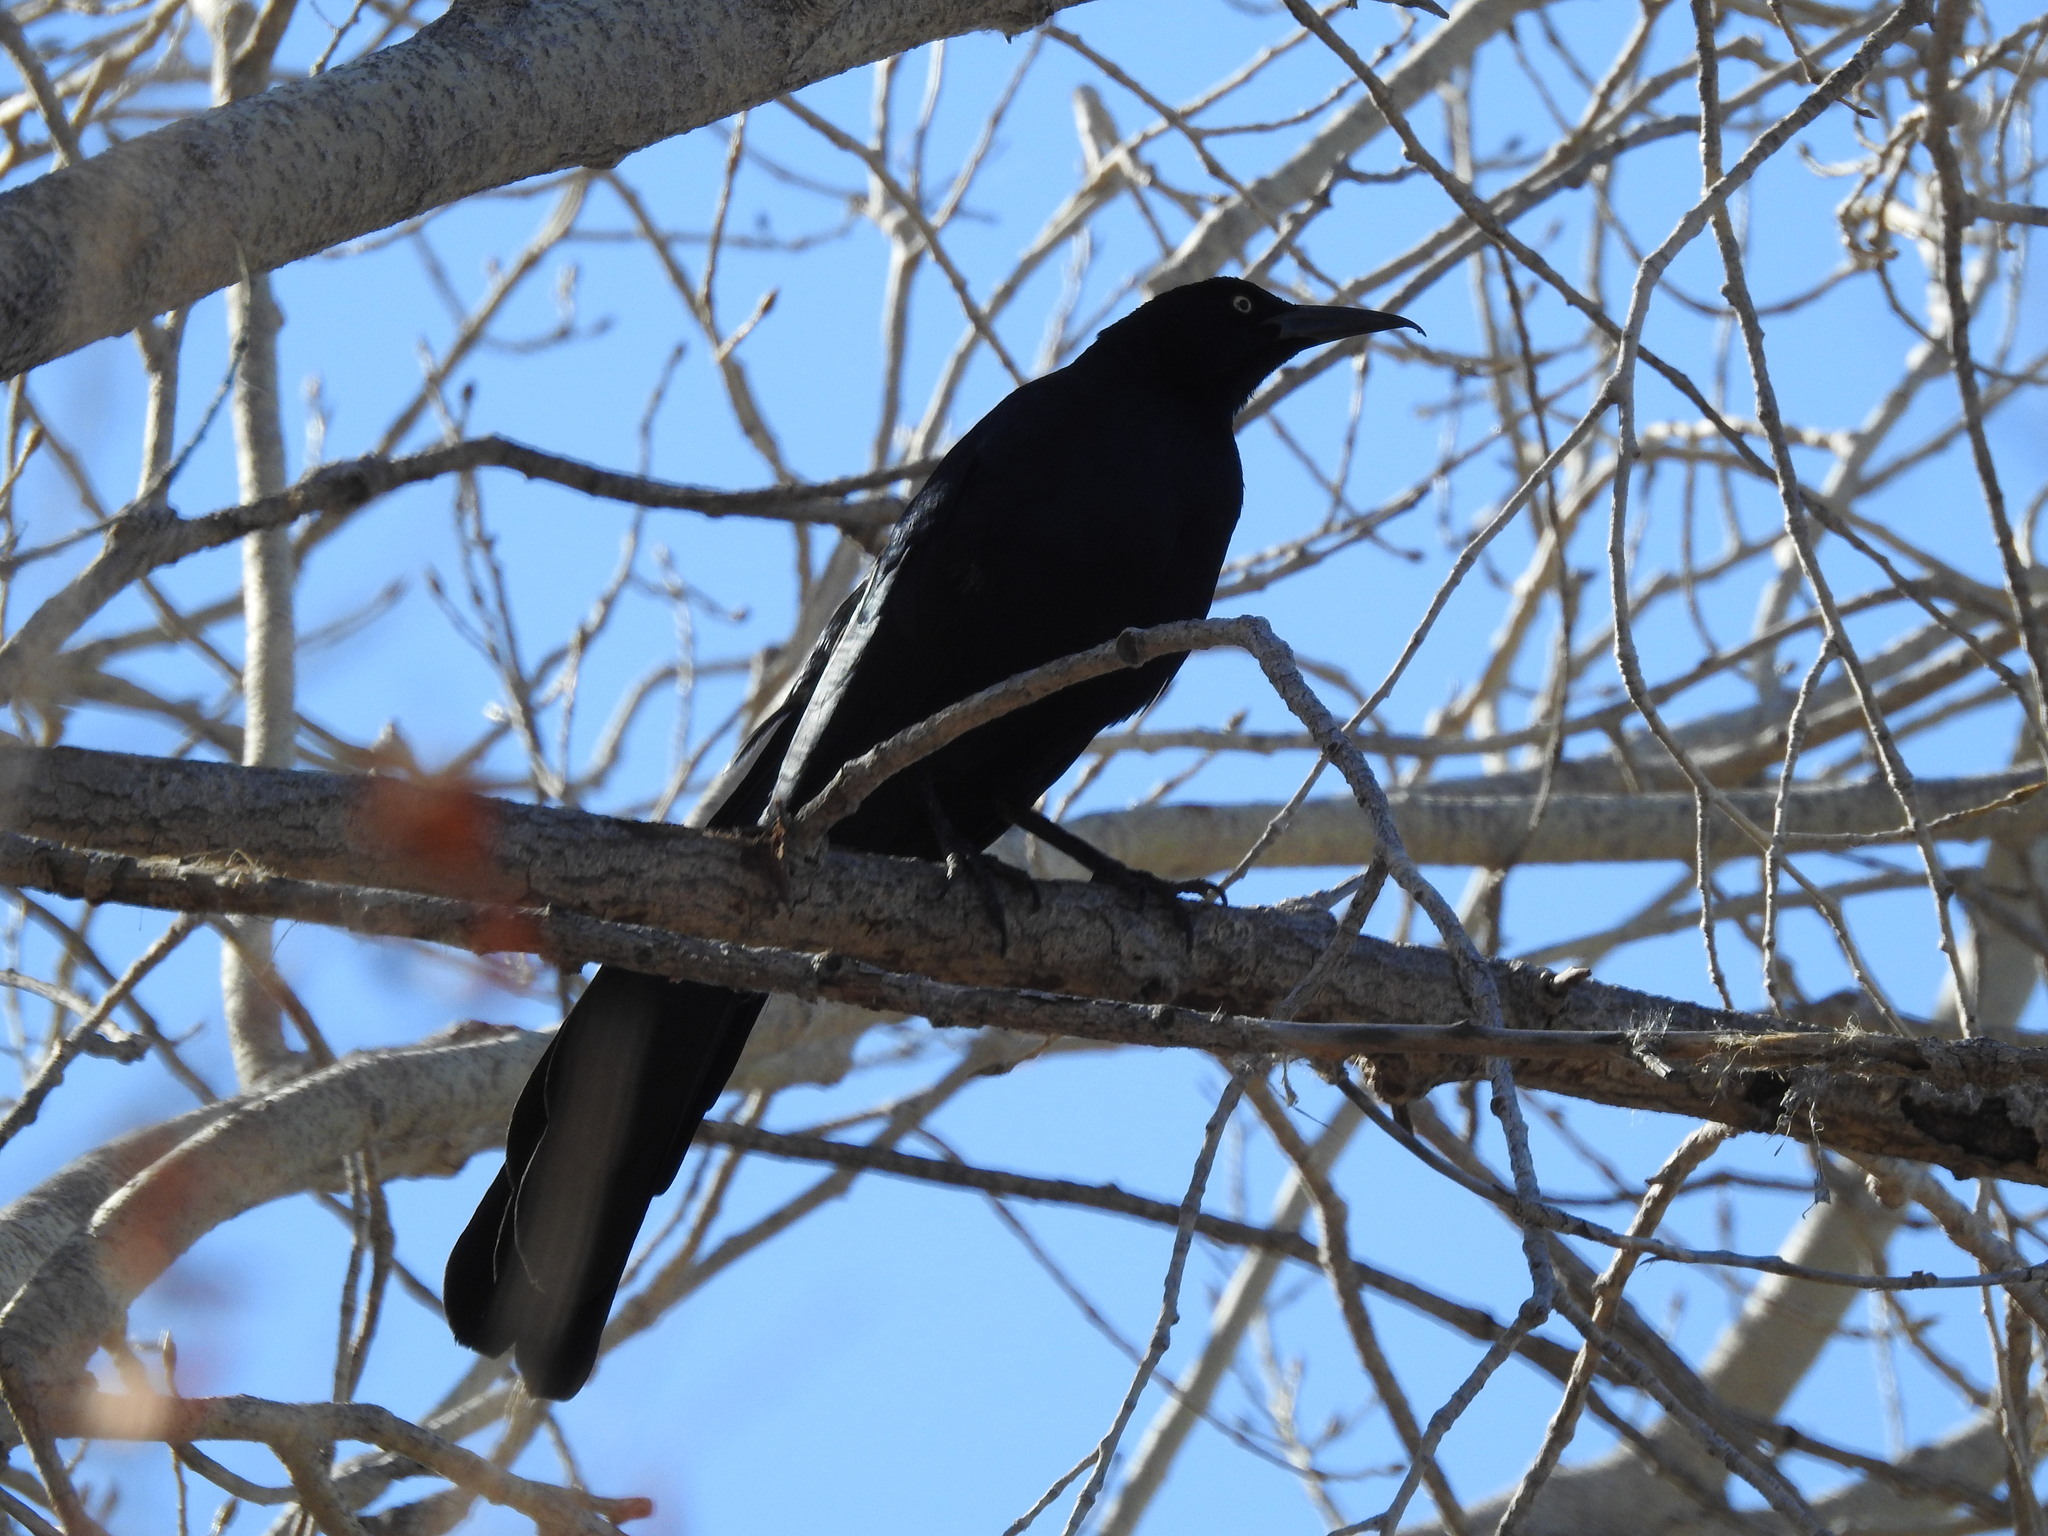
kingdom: Animalia
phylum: Chordata
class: Aves
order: Passeriformes
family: Icteridae
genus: Quiscalus
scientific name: Quiscalus mexicanus
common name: Great-tailed grackle
